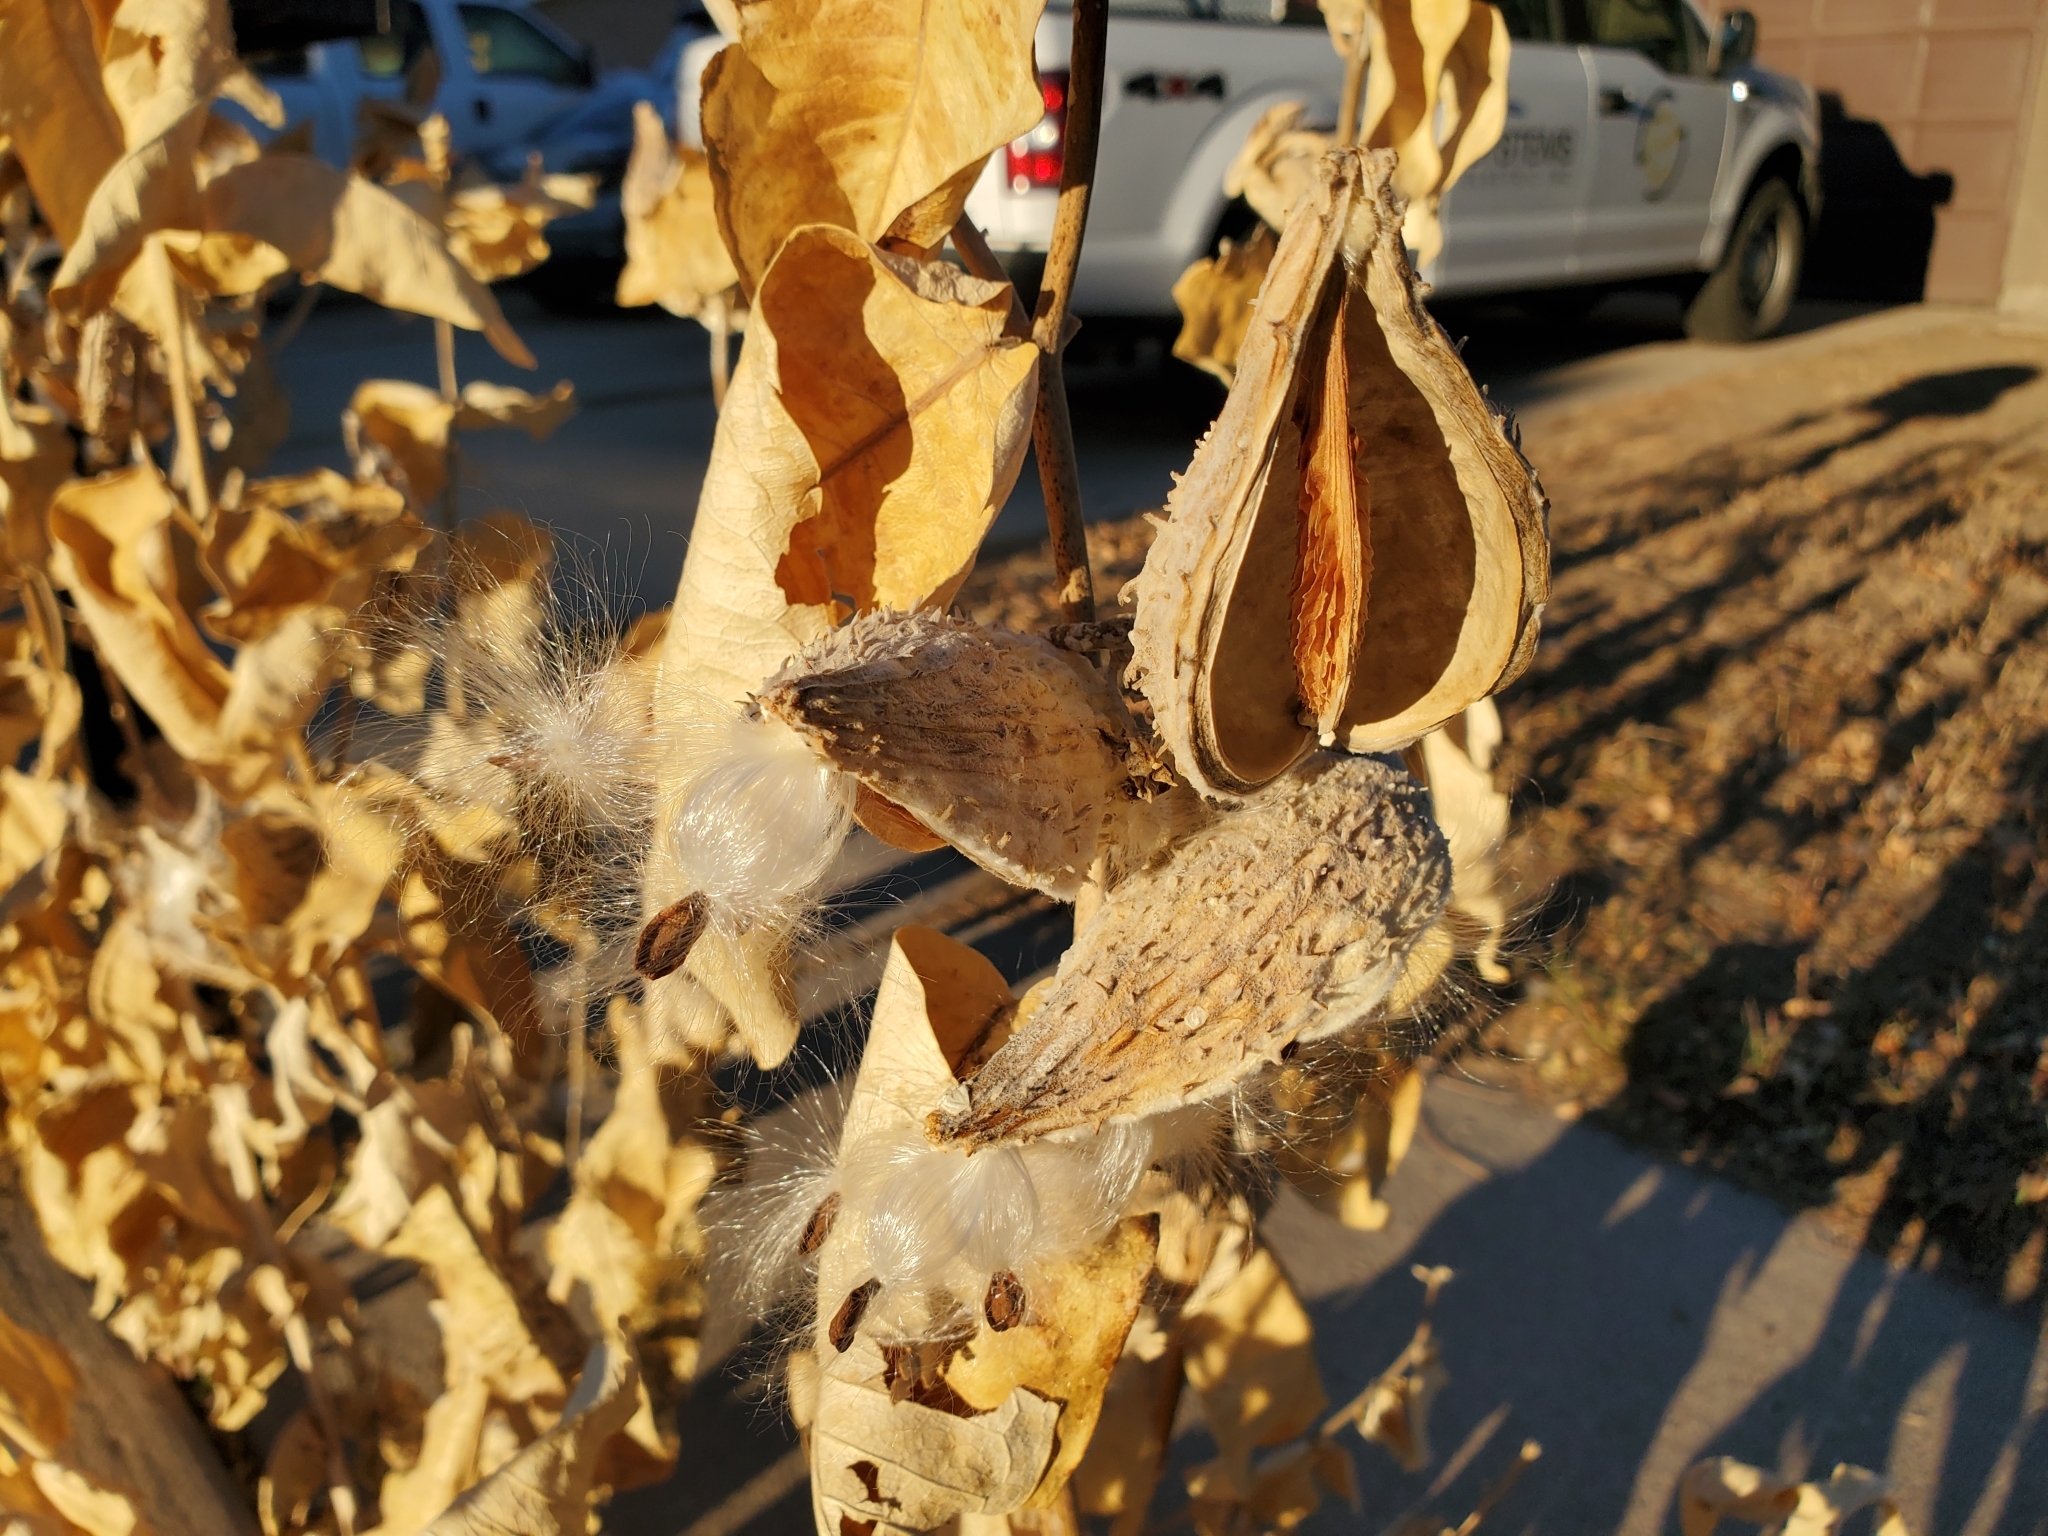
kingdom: Plantae
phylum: Tracheophyta
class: Magnoliopsida
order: Gentianales
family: Apocynaceae
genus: Asclepias
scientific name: Asclepias speciosa
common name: Showy milkweed
